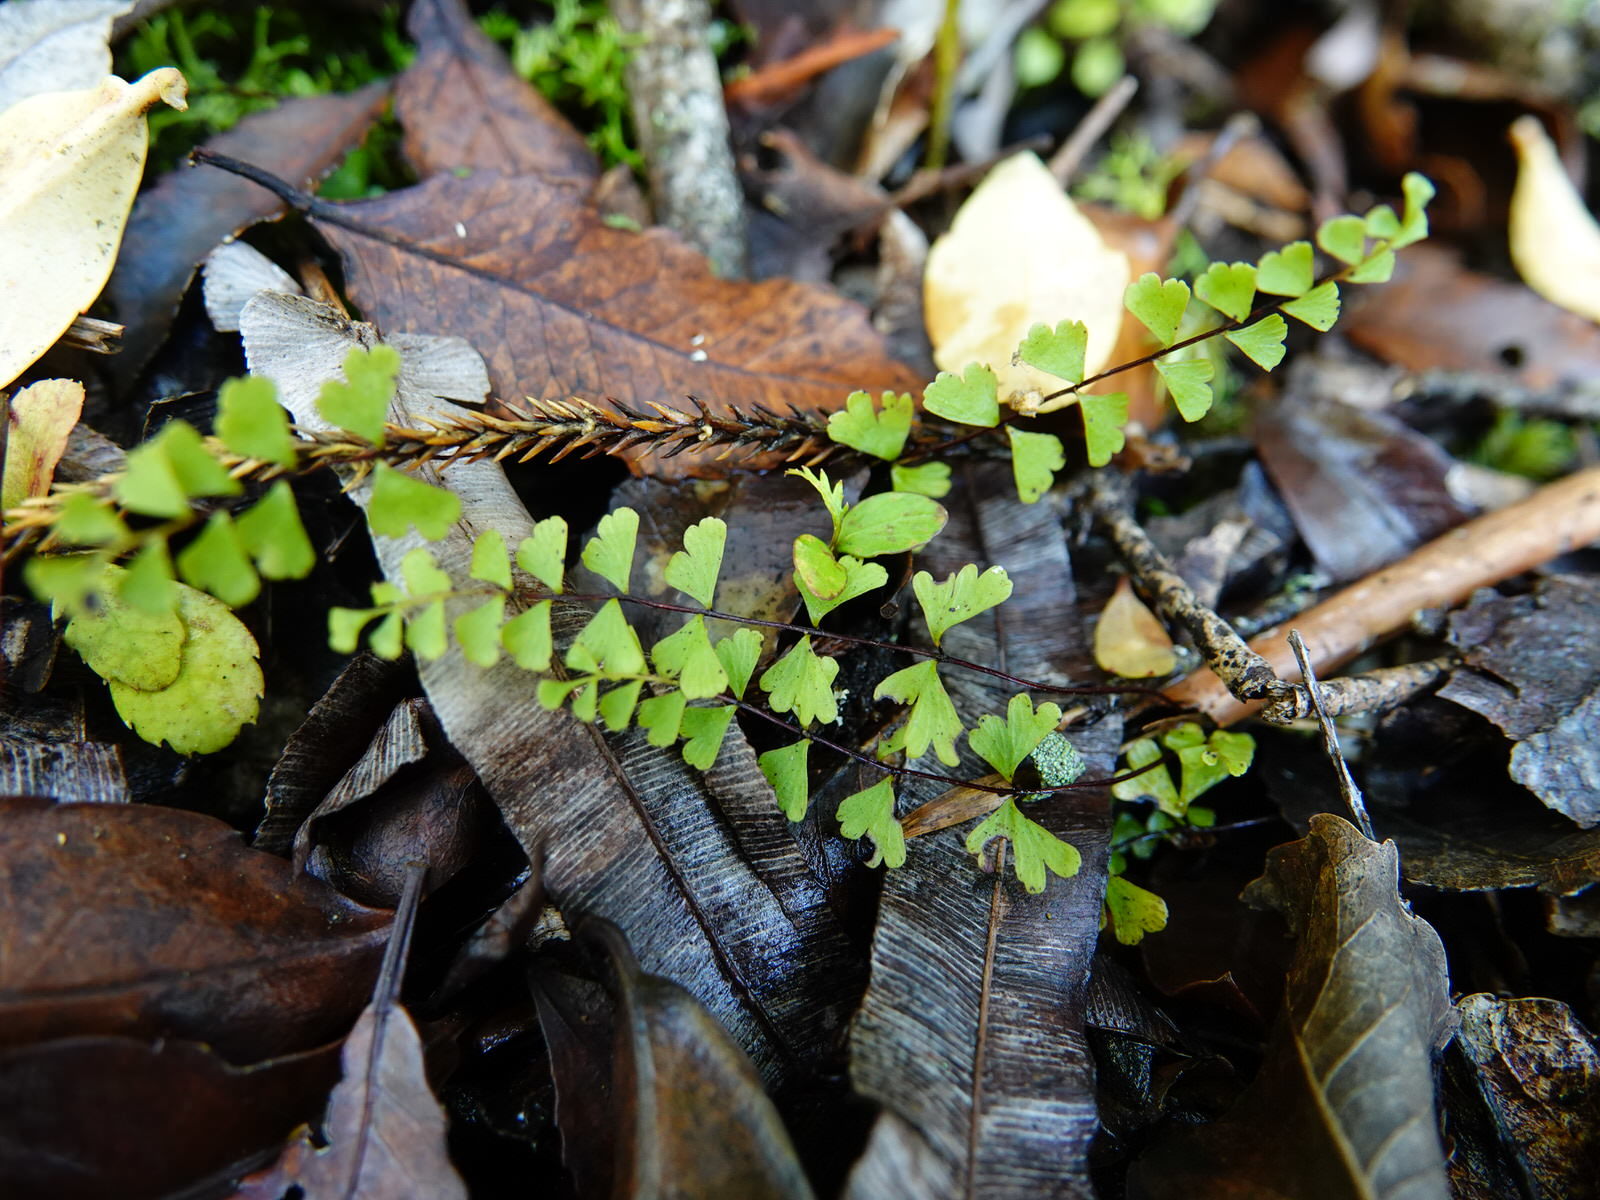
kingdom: Plantae
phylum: Tracheophyta
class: Polypodiopsida
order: Polypodiales
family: Lindsaeaceae
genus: Lindsaea
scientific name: Lindsaea linearis
